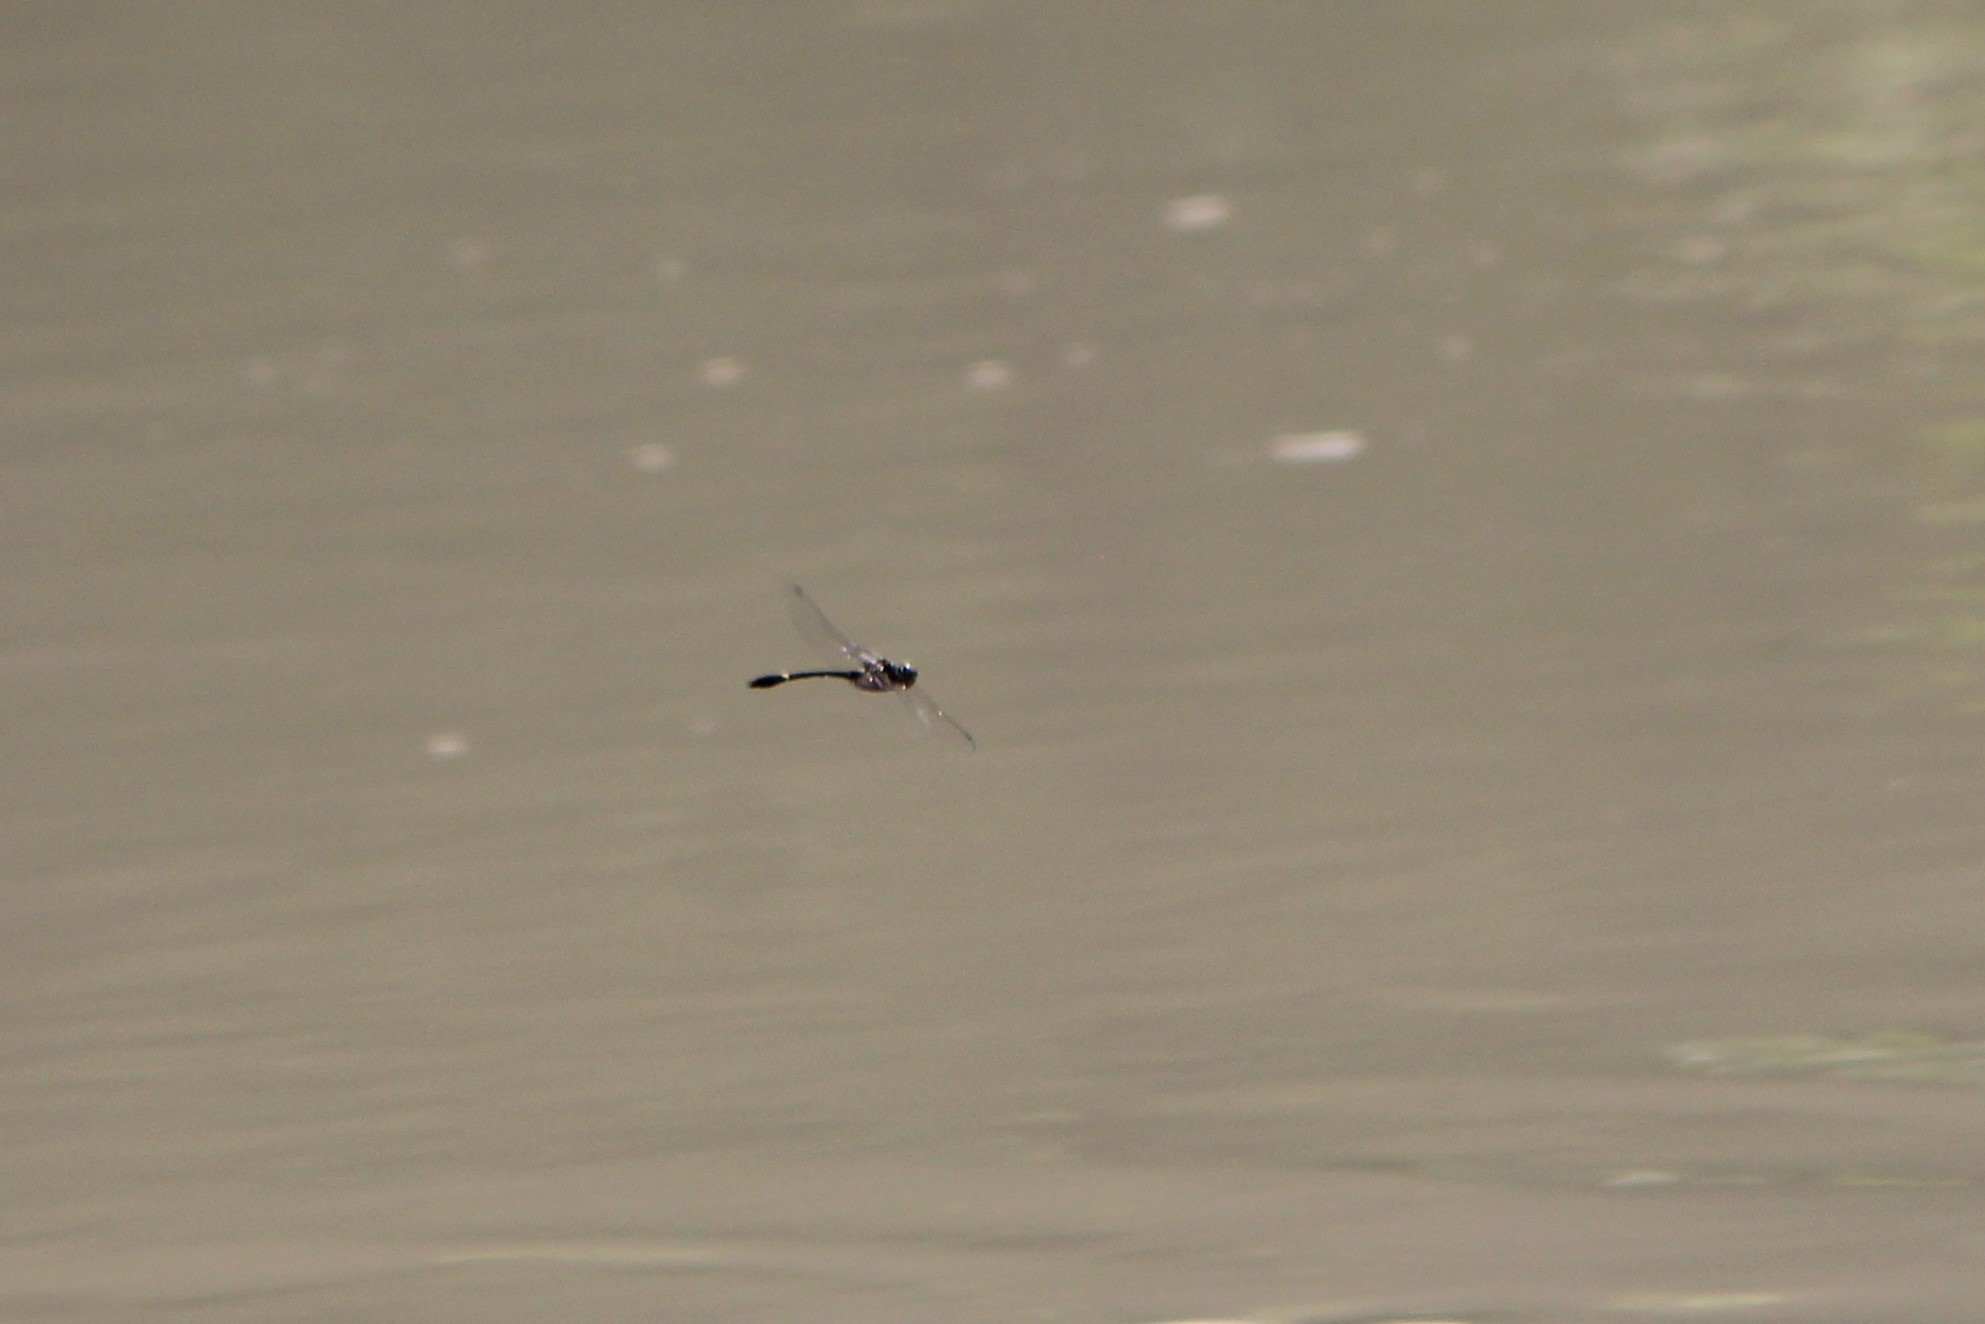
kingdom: Animalia
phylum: Arthropoda
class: Insecta
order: Odonata
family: Macromiidae
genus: Macromia
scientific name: Macromia illinoiensis
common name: Swift river cruiser
